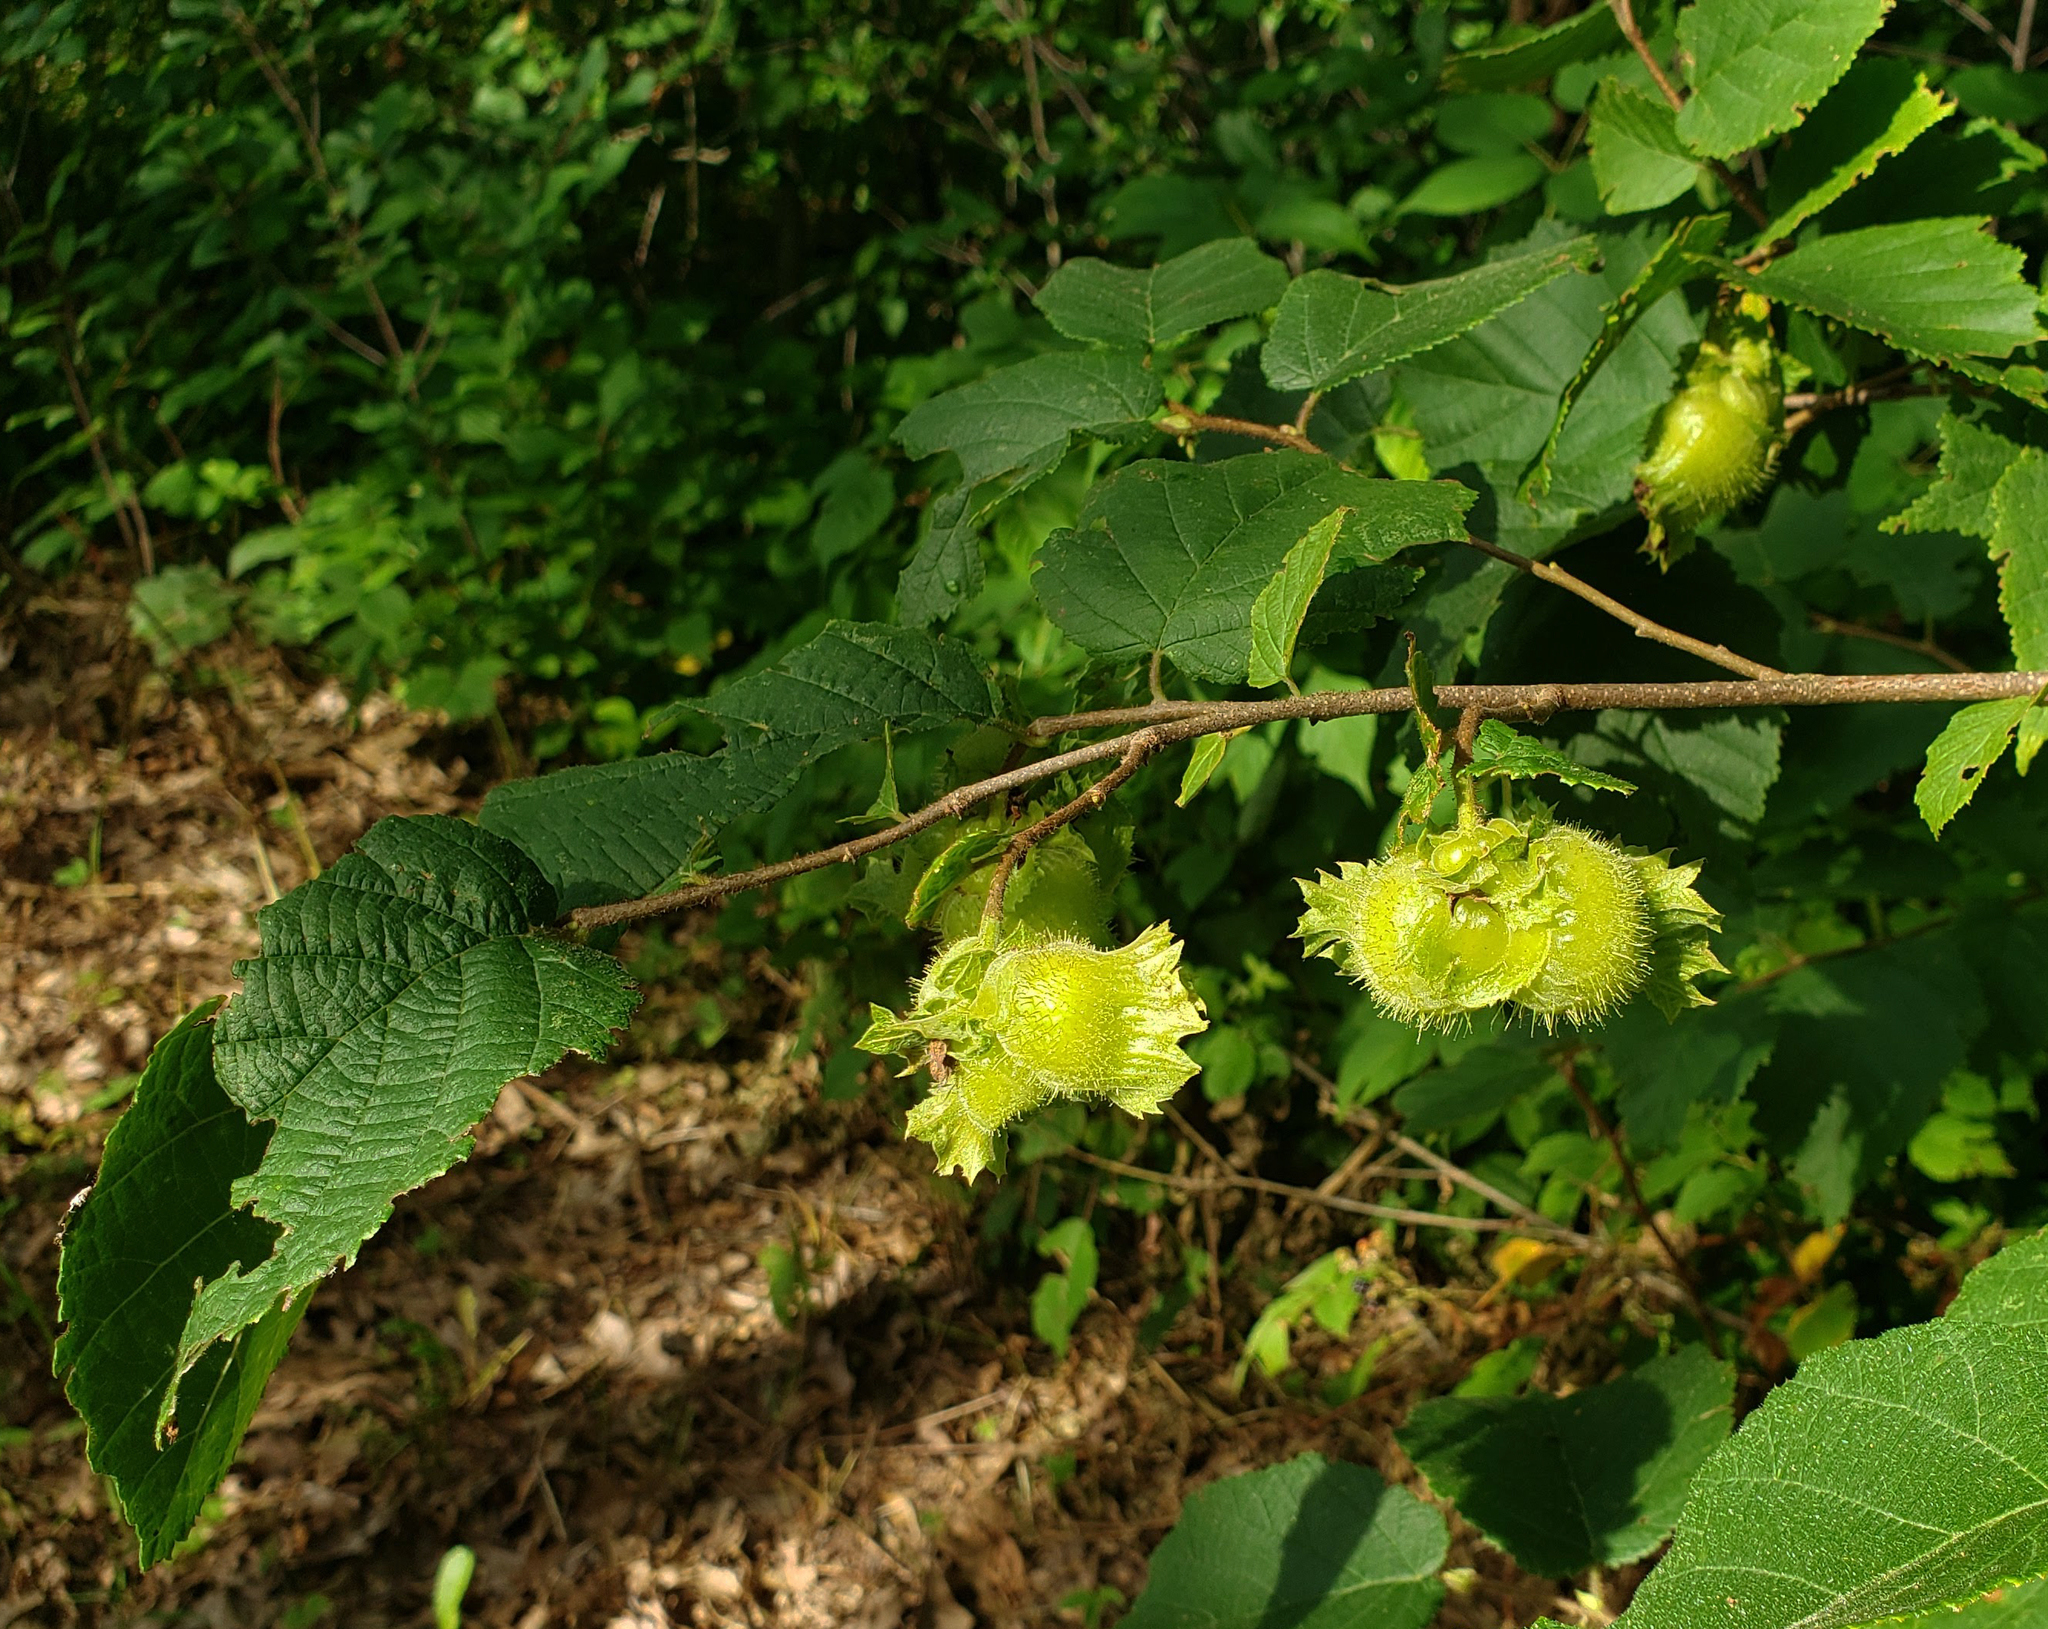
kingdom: Plantae
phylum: Tracheophyta
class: Magnoliopsida
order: Fagales
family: Betulaceae
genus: Corylus
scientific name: Corylus americana
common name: American hazel
